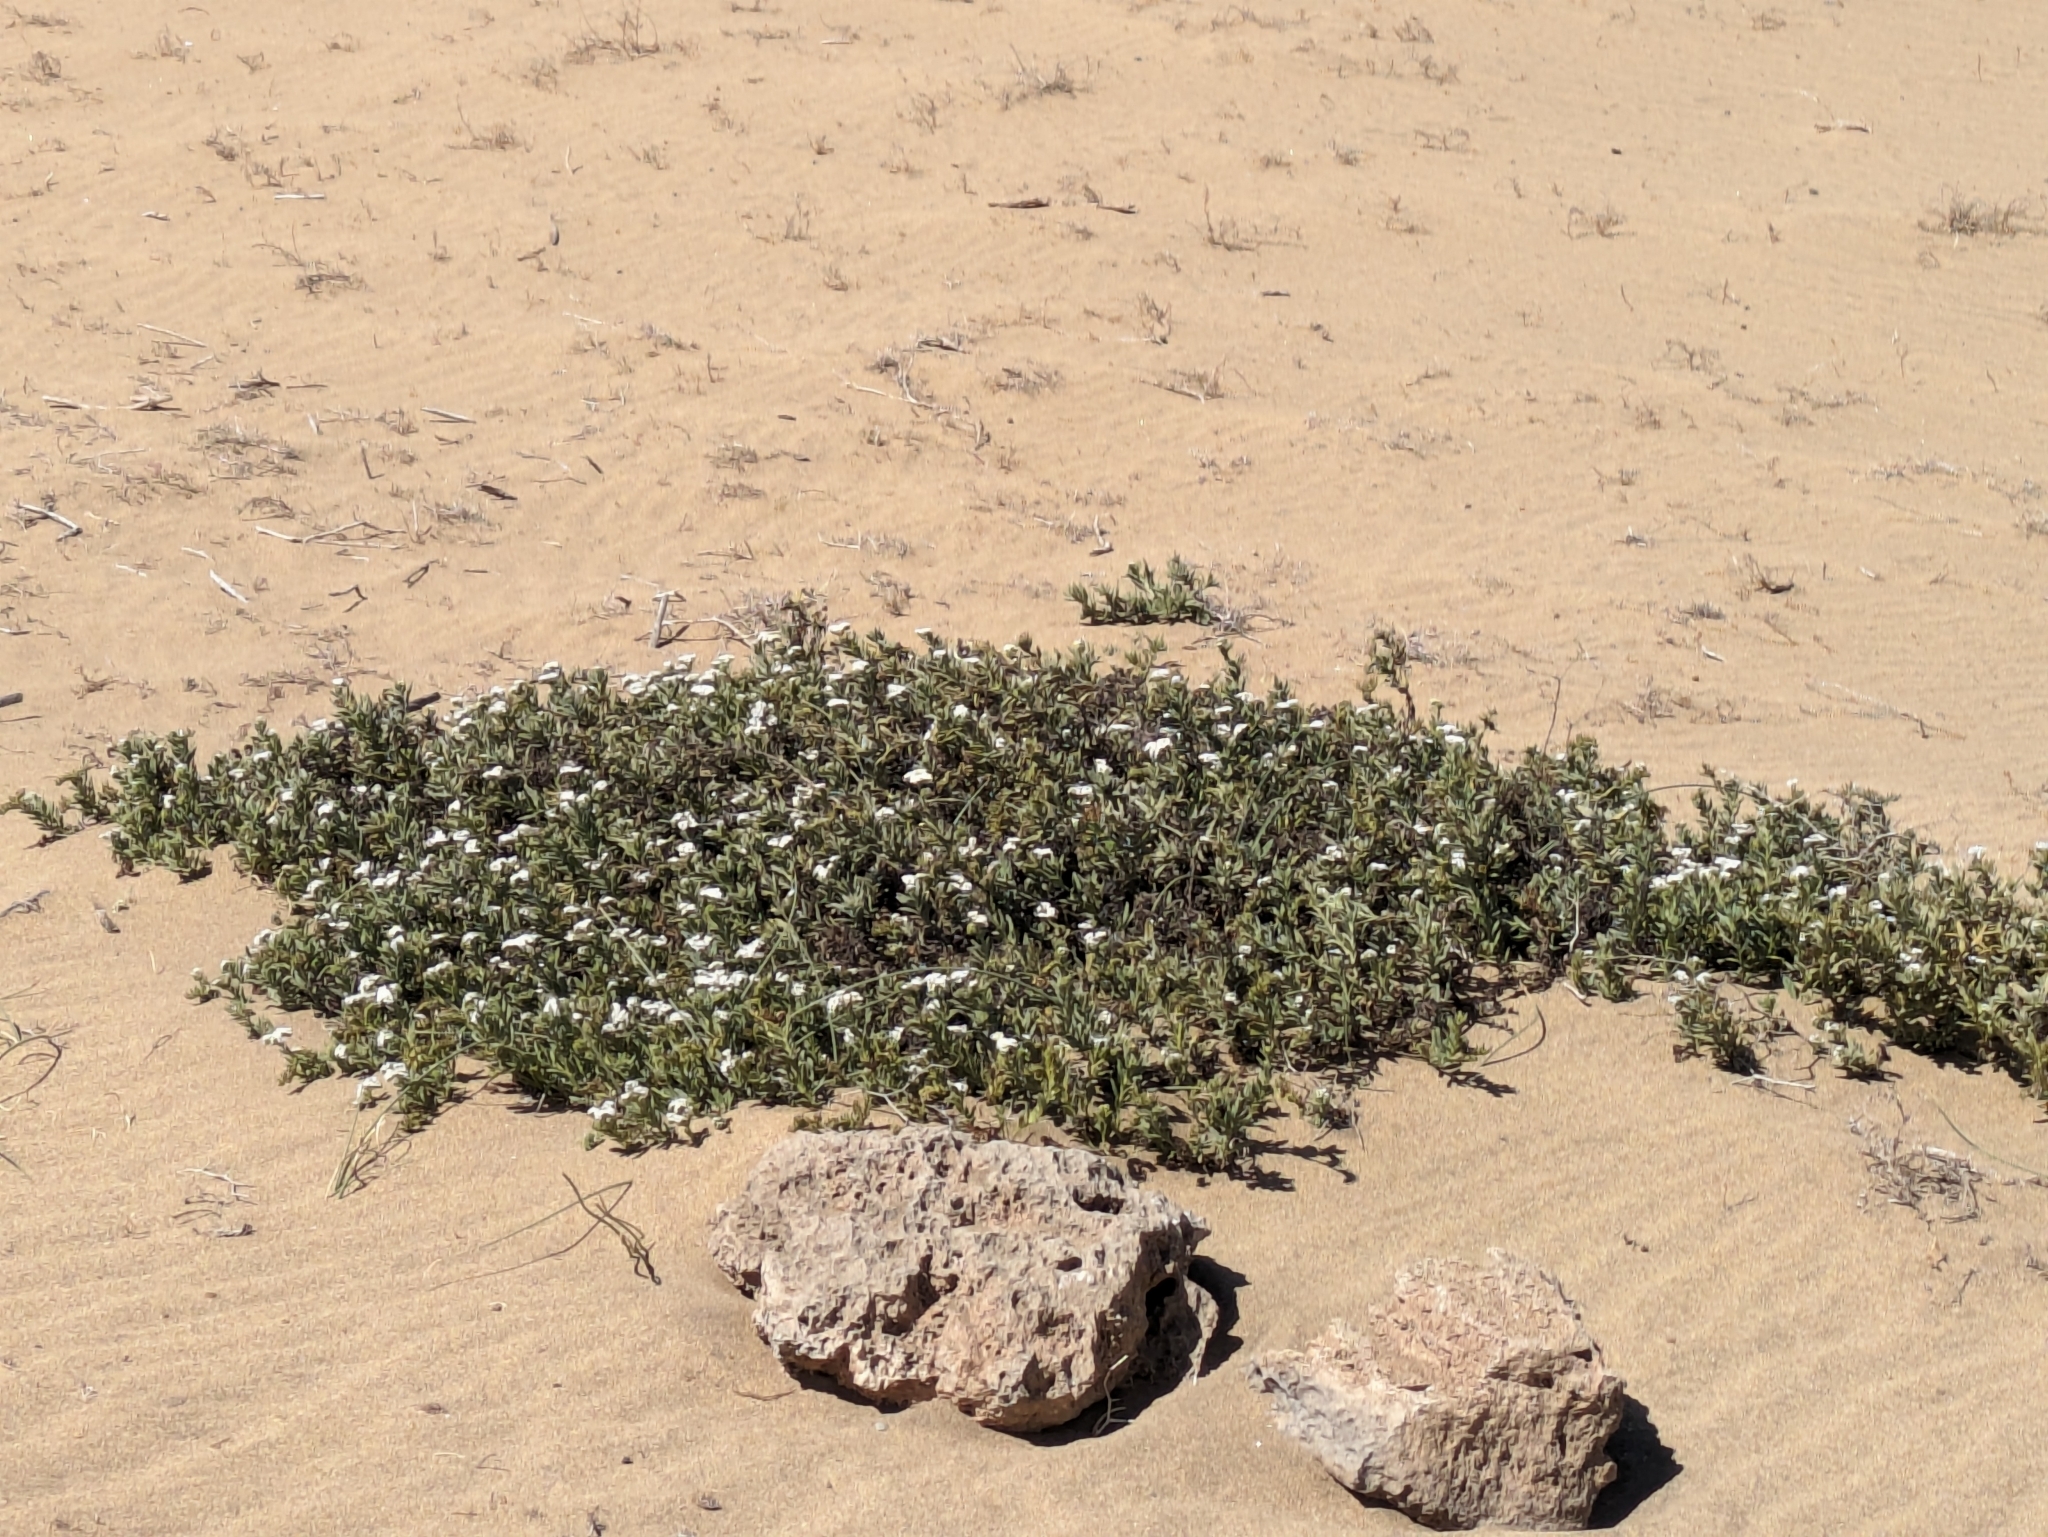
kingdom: Plantae
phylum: Tracheophyta
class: Magnoliopsida
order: Boraginales
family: Heliotropiaceae
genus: Heliotropium
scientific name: Heliotropium ramosissimum
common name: Wavy heliotrope
